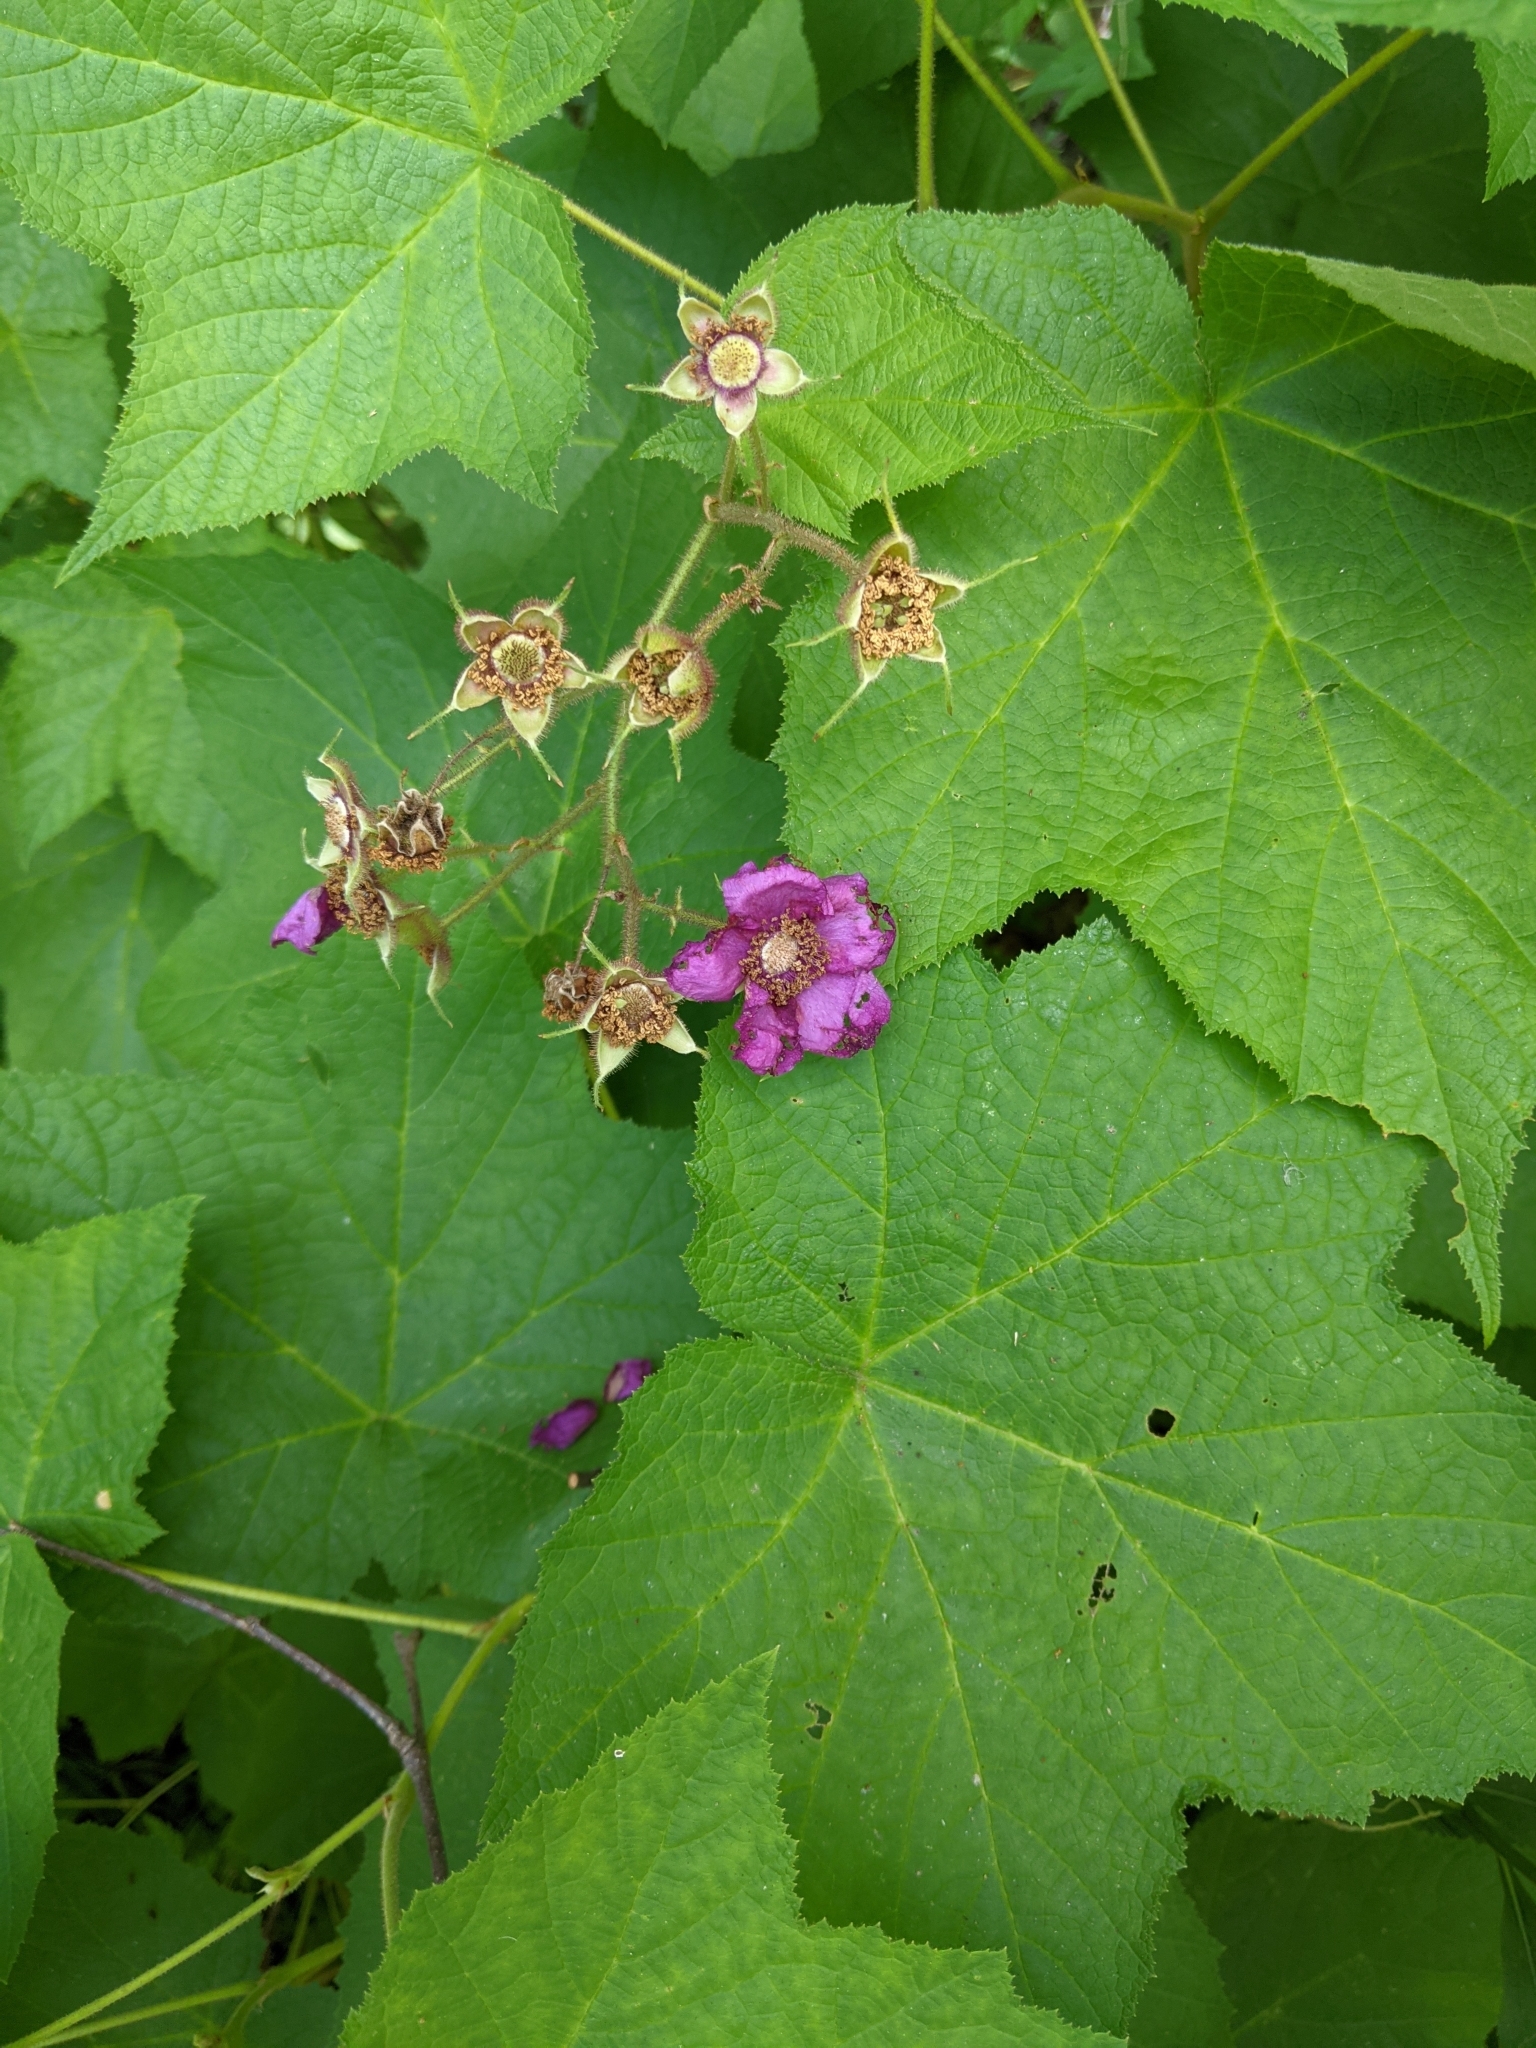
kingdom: Plantae
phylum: Tracheophyta
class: Magnoliopsida
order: Rosales
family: Rosaceae
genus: Rubus
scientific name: Rubus odoratus
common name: Purple-flowered raspberry
